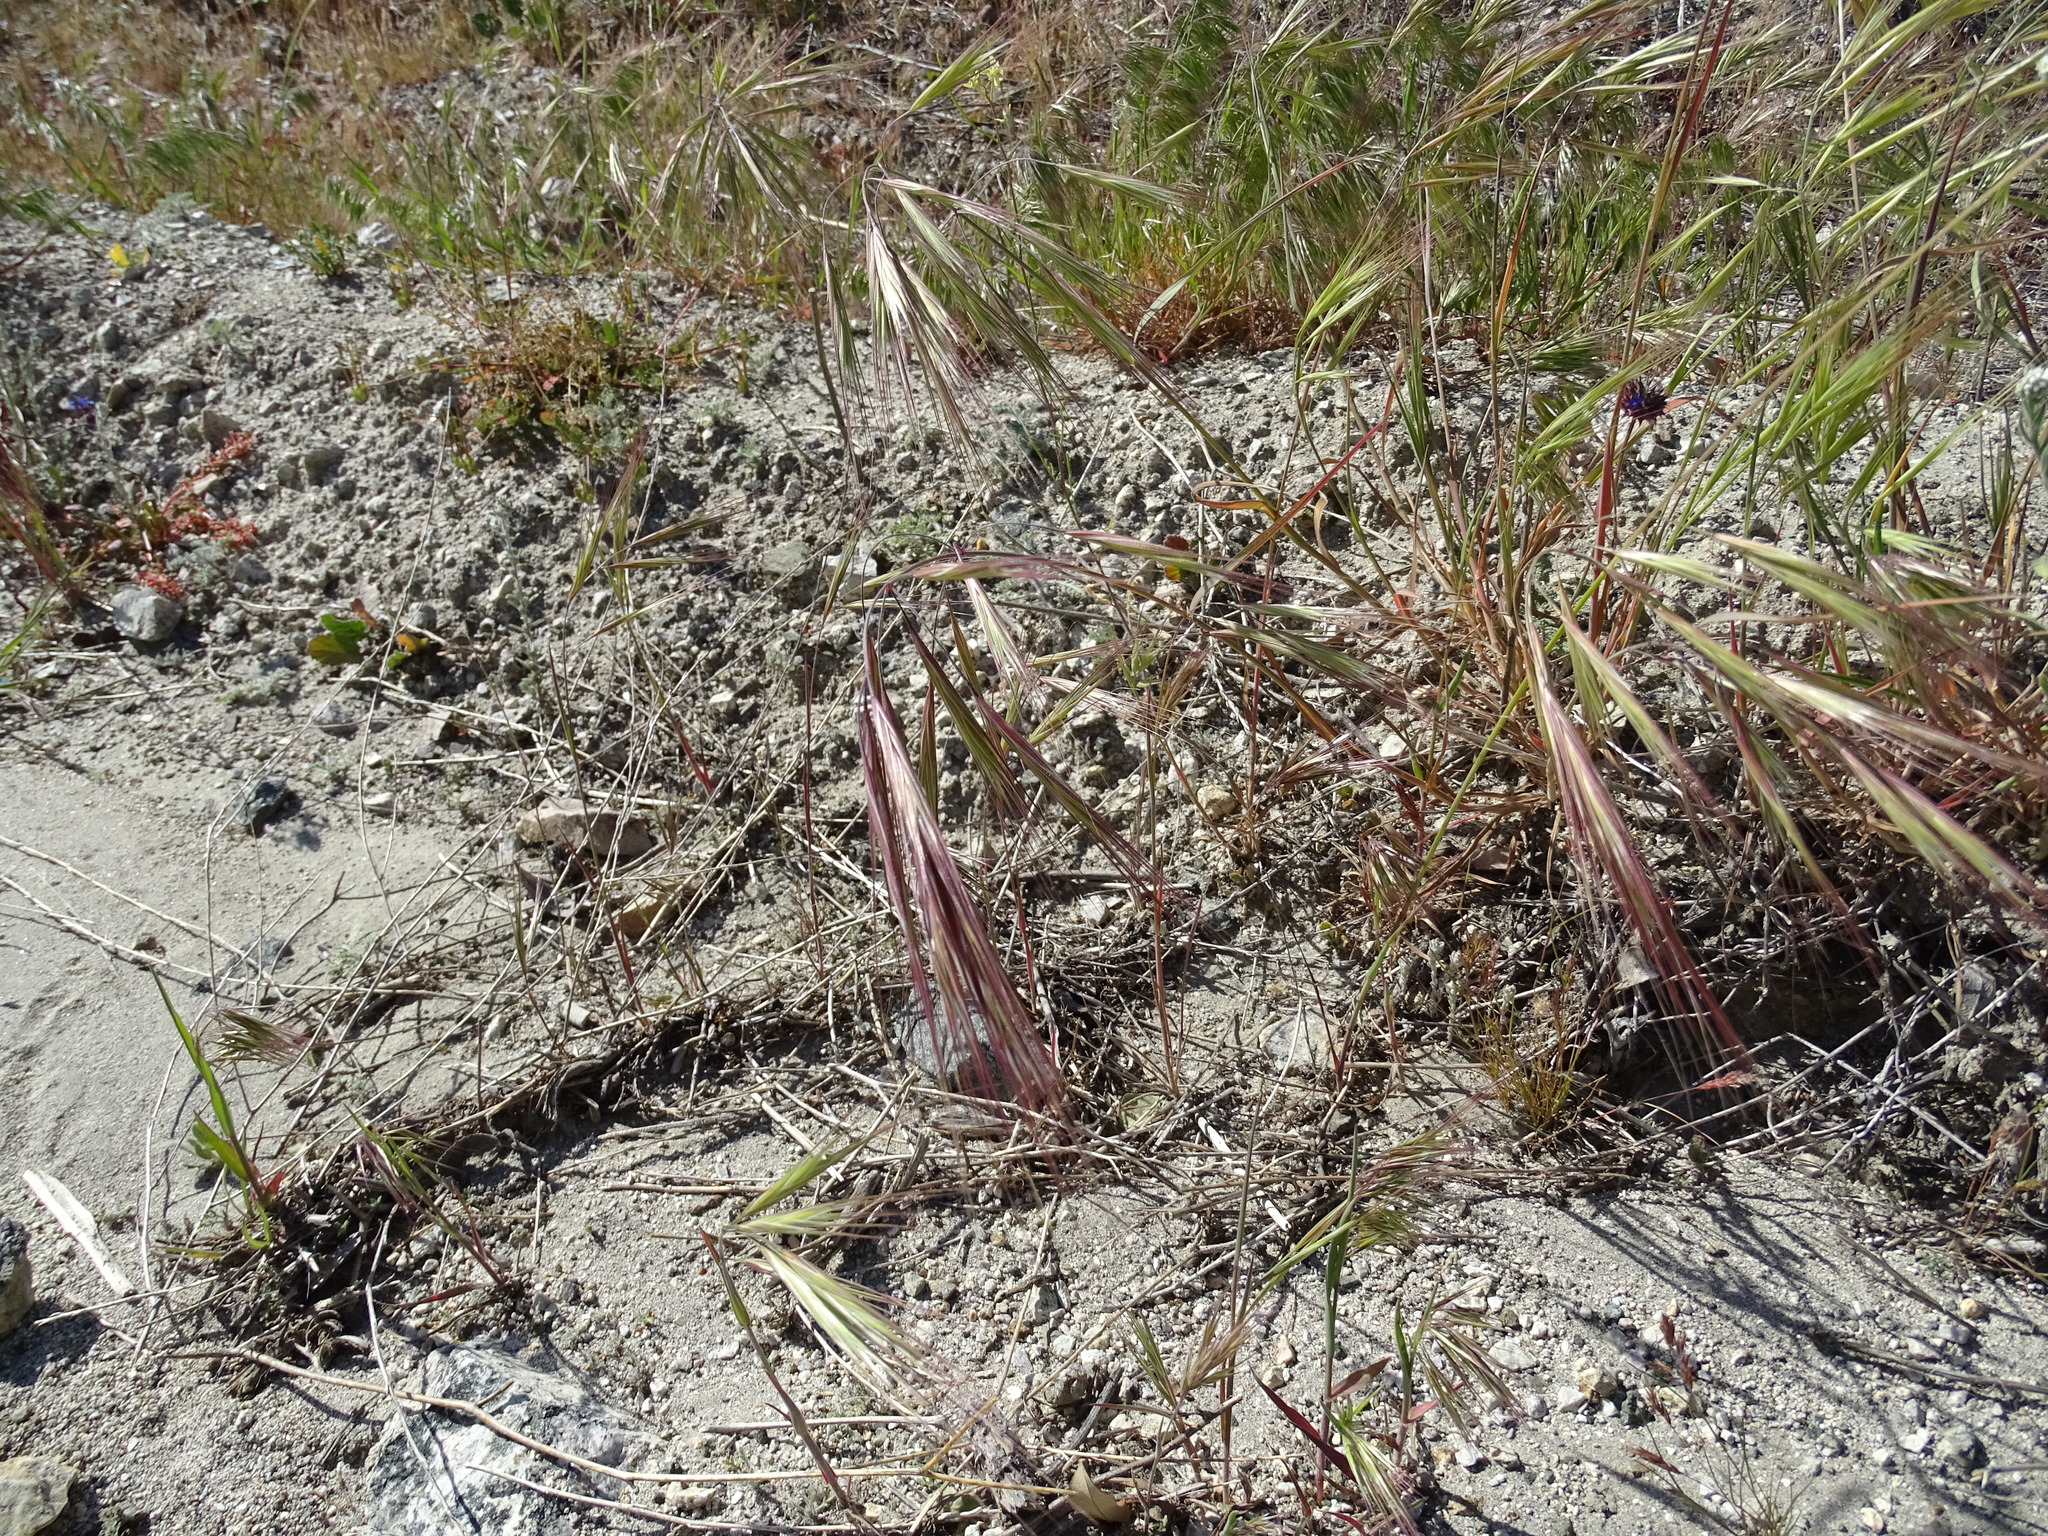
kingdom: Plantae
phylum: Tracheophyta
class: Liliopsida
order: Poales
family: Poaceae
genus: Bromus
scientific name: Bromus diandrus
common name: Ripgut brome
